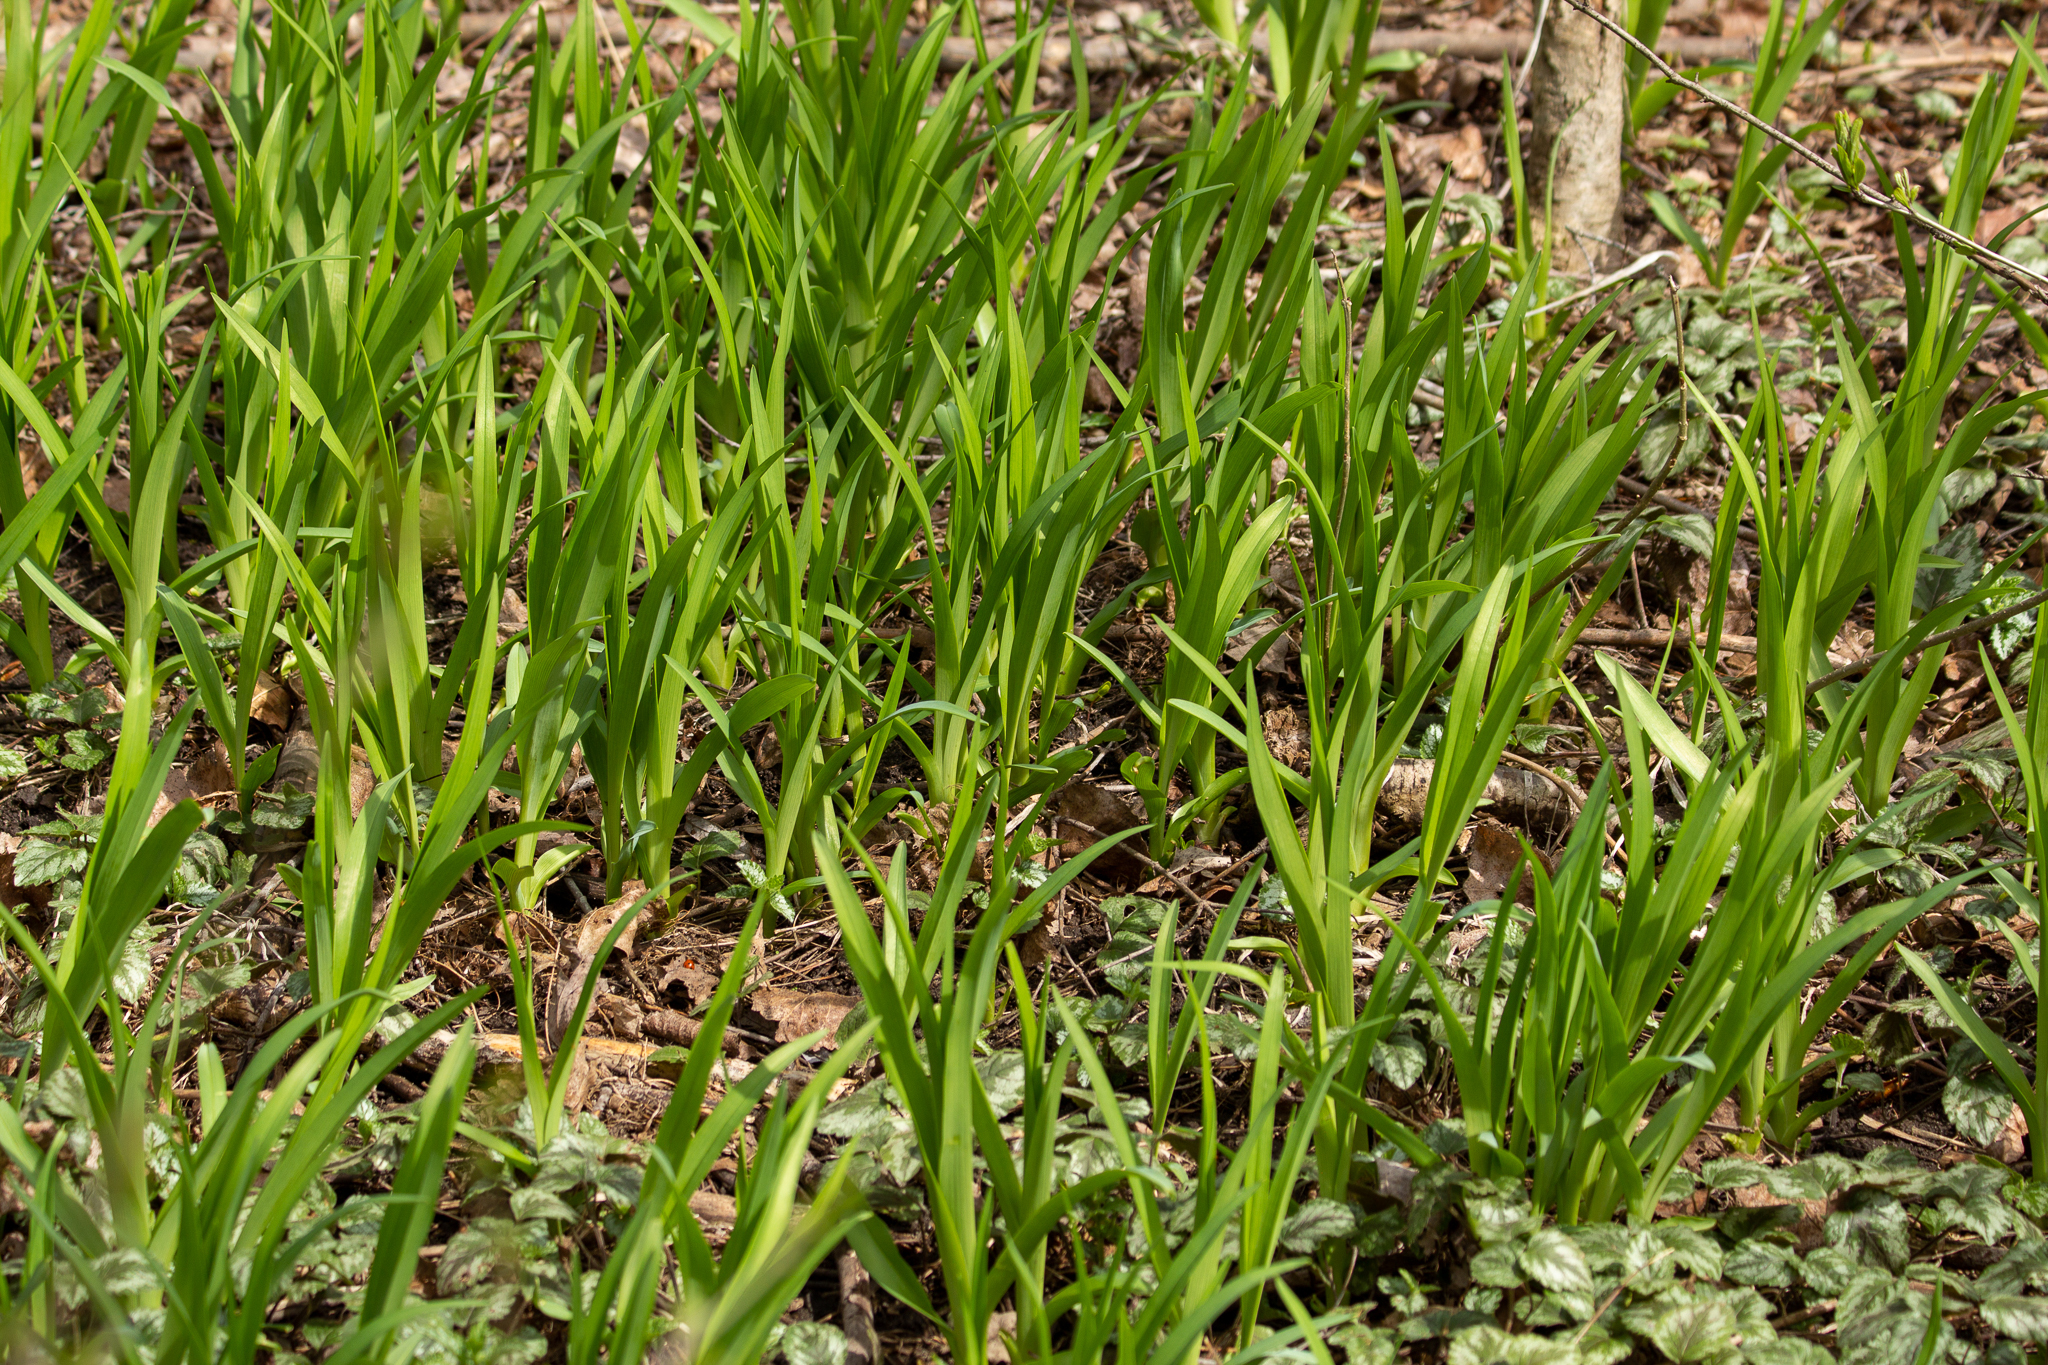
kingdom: Plantae
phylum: Tracheophyta
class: Liliopsida
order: Asparagales
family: Asphodelaceae
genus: Hemerocallis
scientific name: Hemerocallis fulva
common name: Orange day-lily
